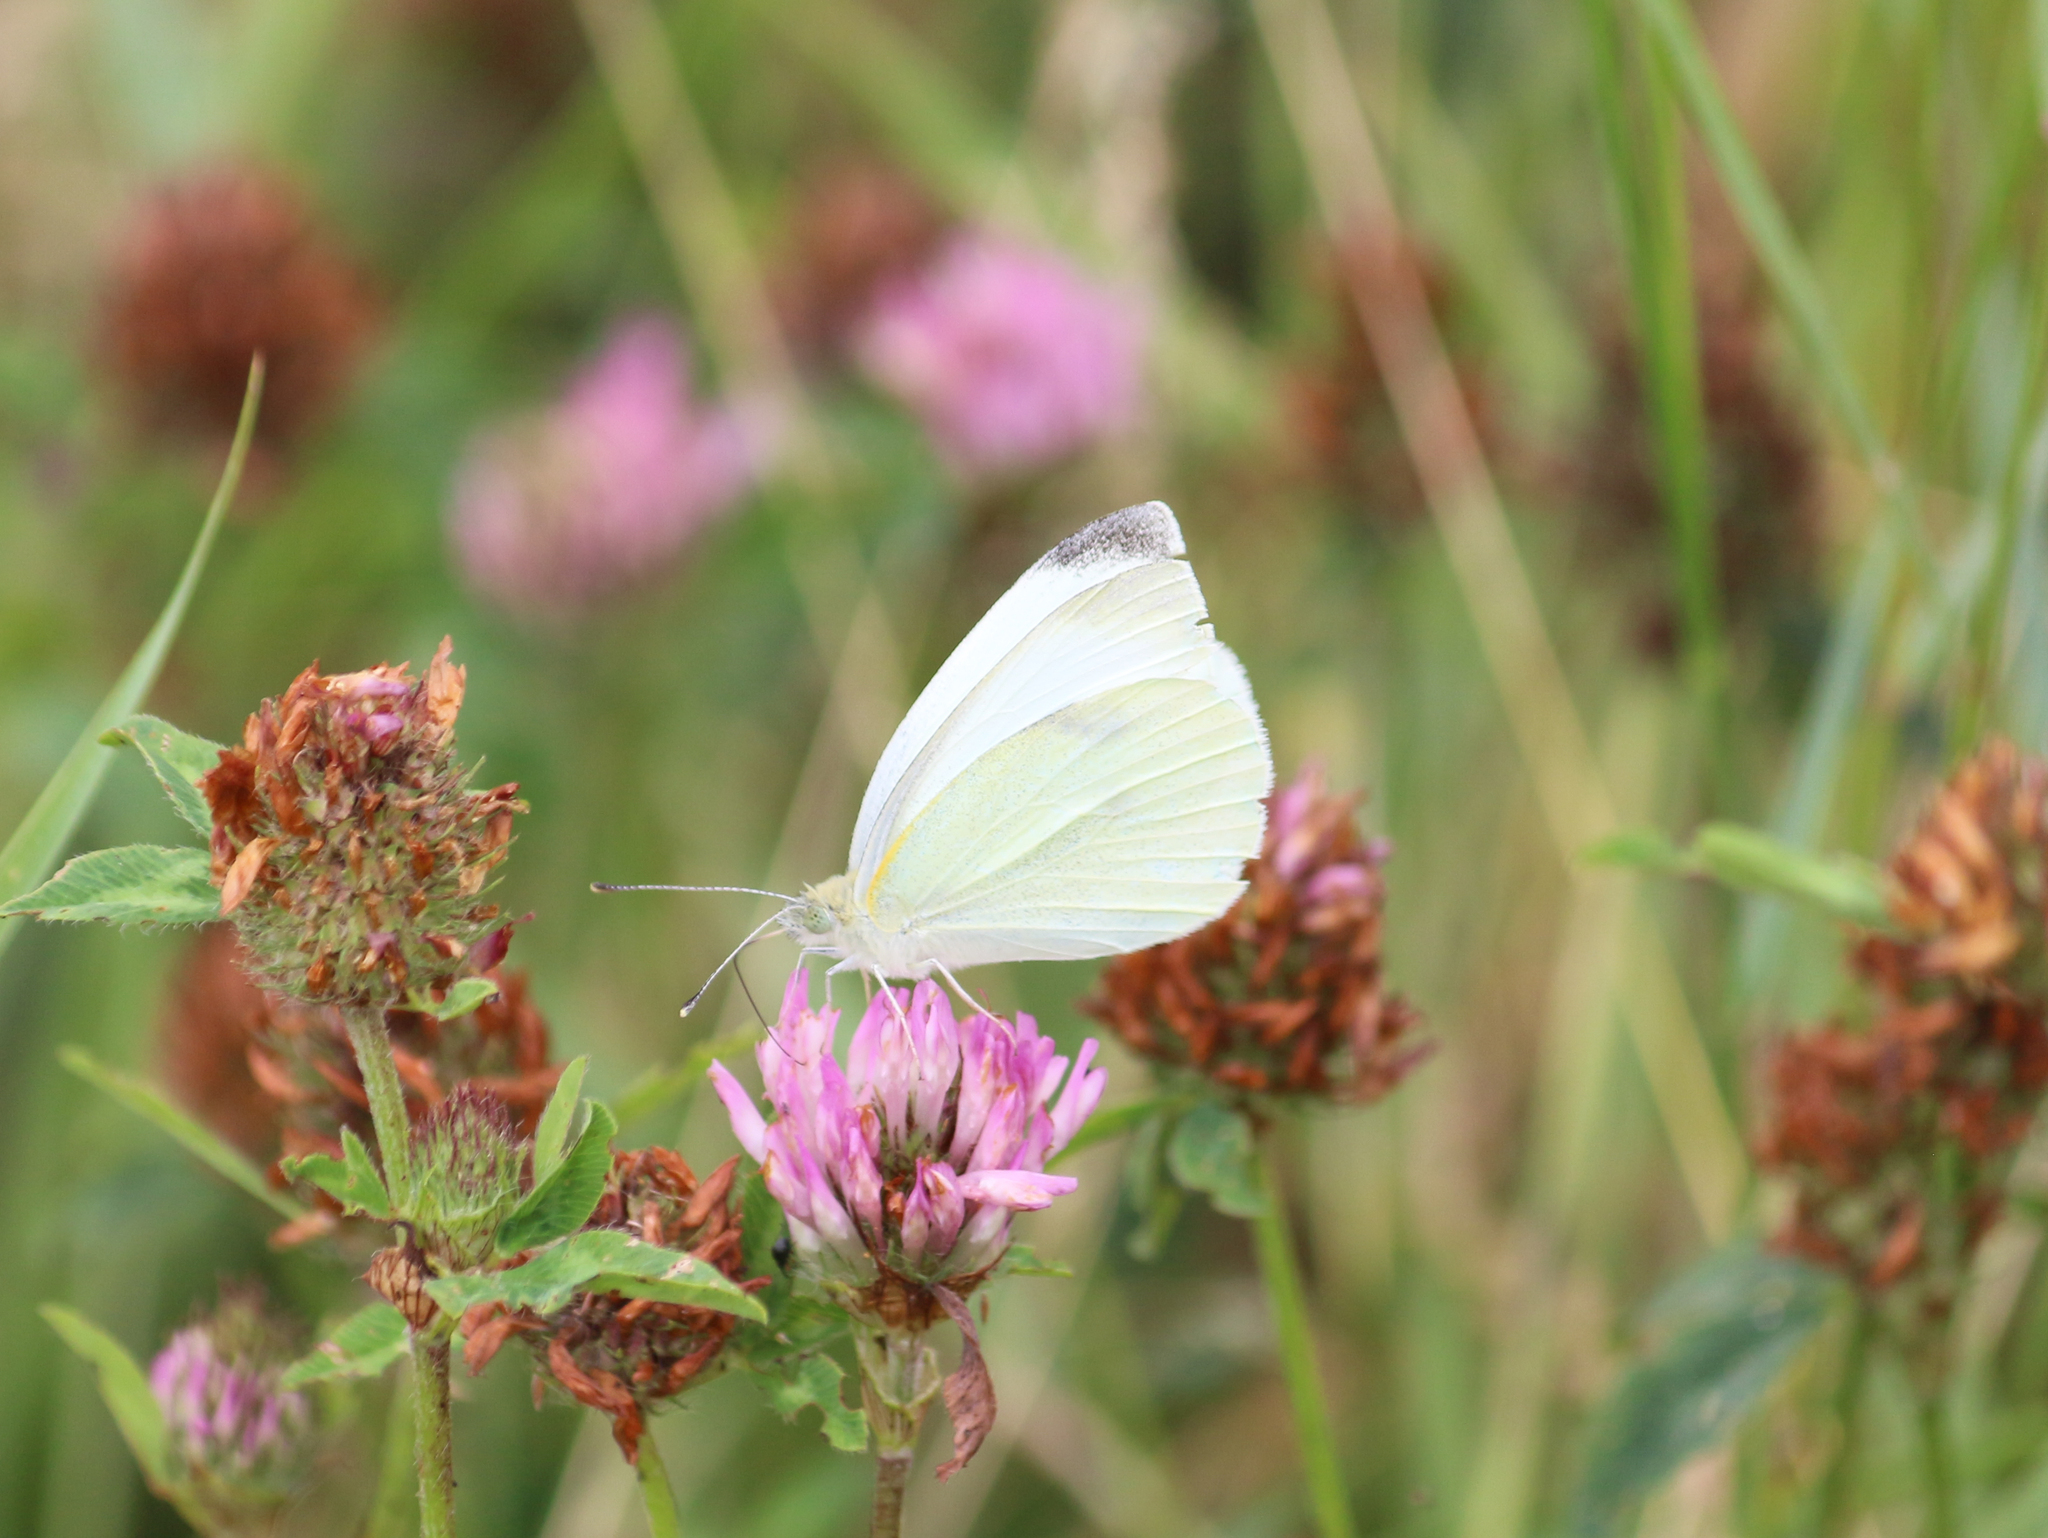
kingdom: Animalia
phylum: Arthropoda
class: Insecta
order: Lepidoptera
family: Pieridae
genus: Pieris
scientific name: Pieris rapae
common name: Small white
